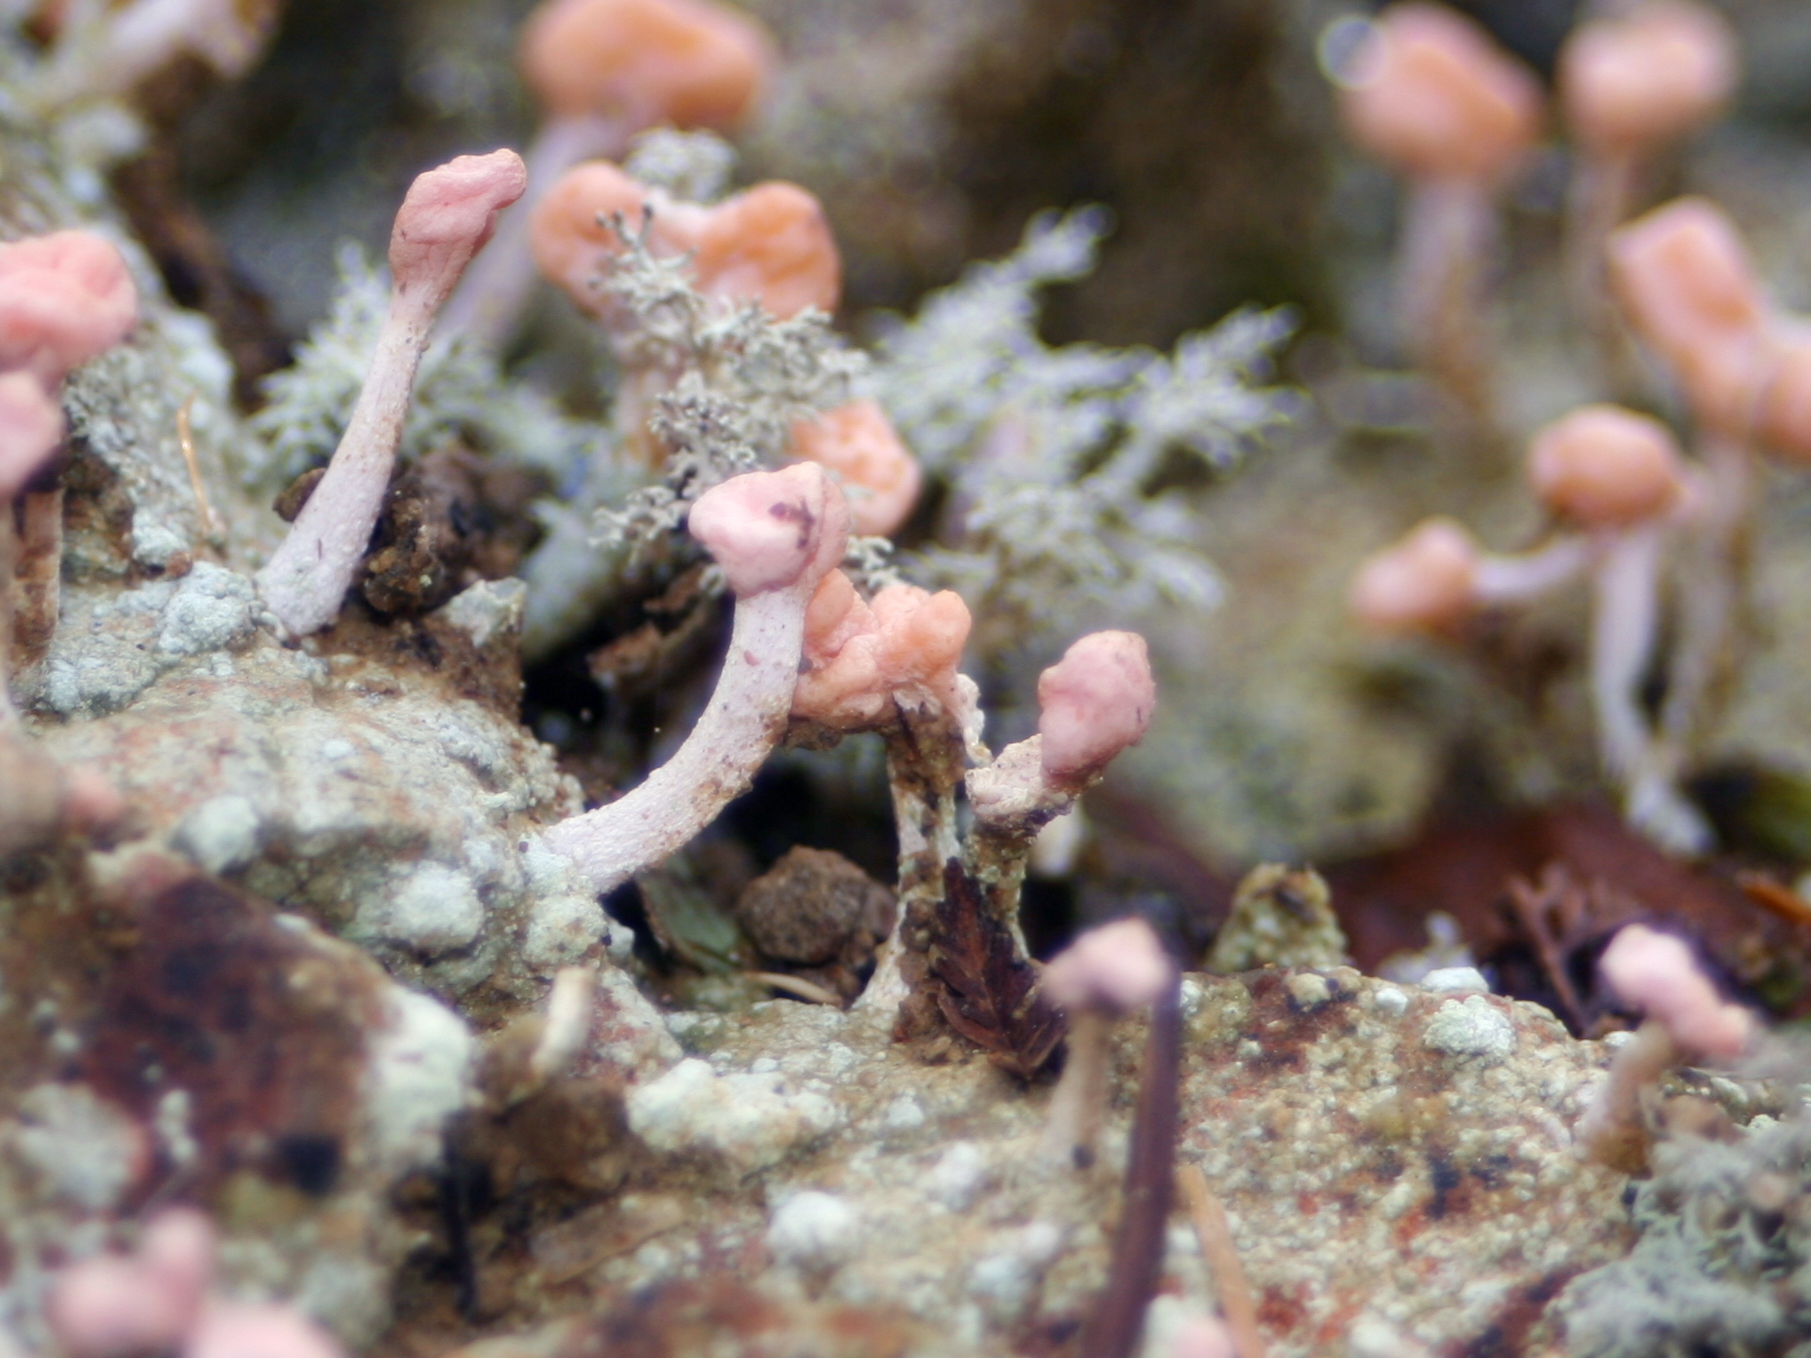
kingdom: Fungi
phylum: Ascomycota
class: Lecanoromycetes
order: Pertusariales
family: Icmadophilaceae
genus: Dibaeis
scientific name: Dibaeis arcuata
